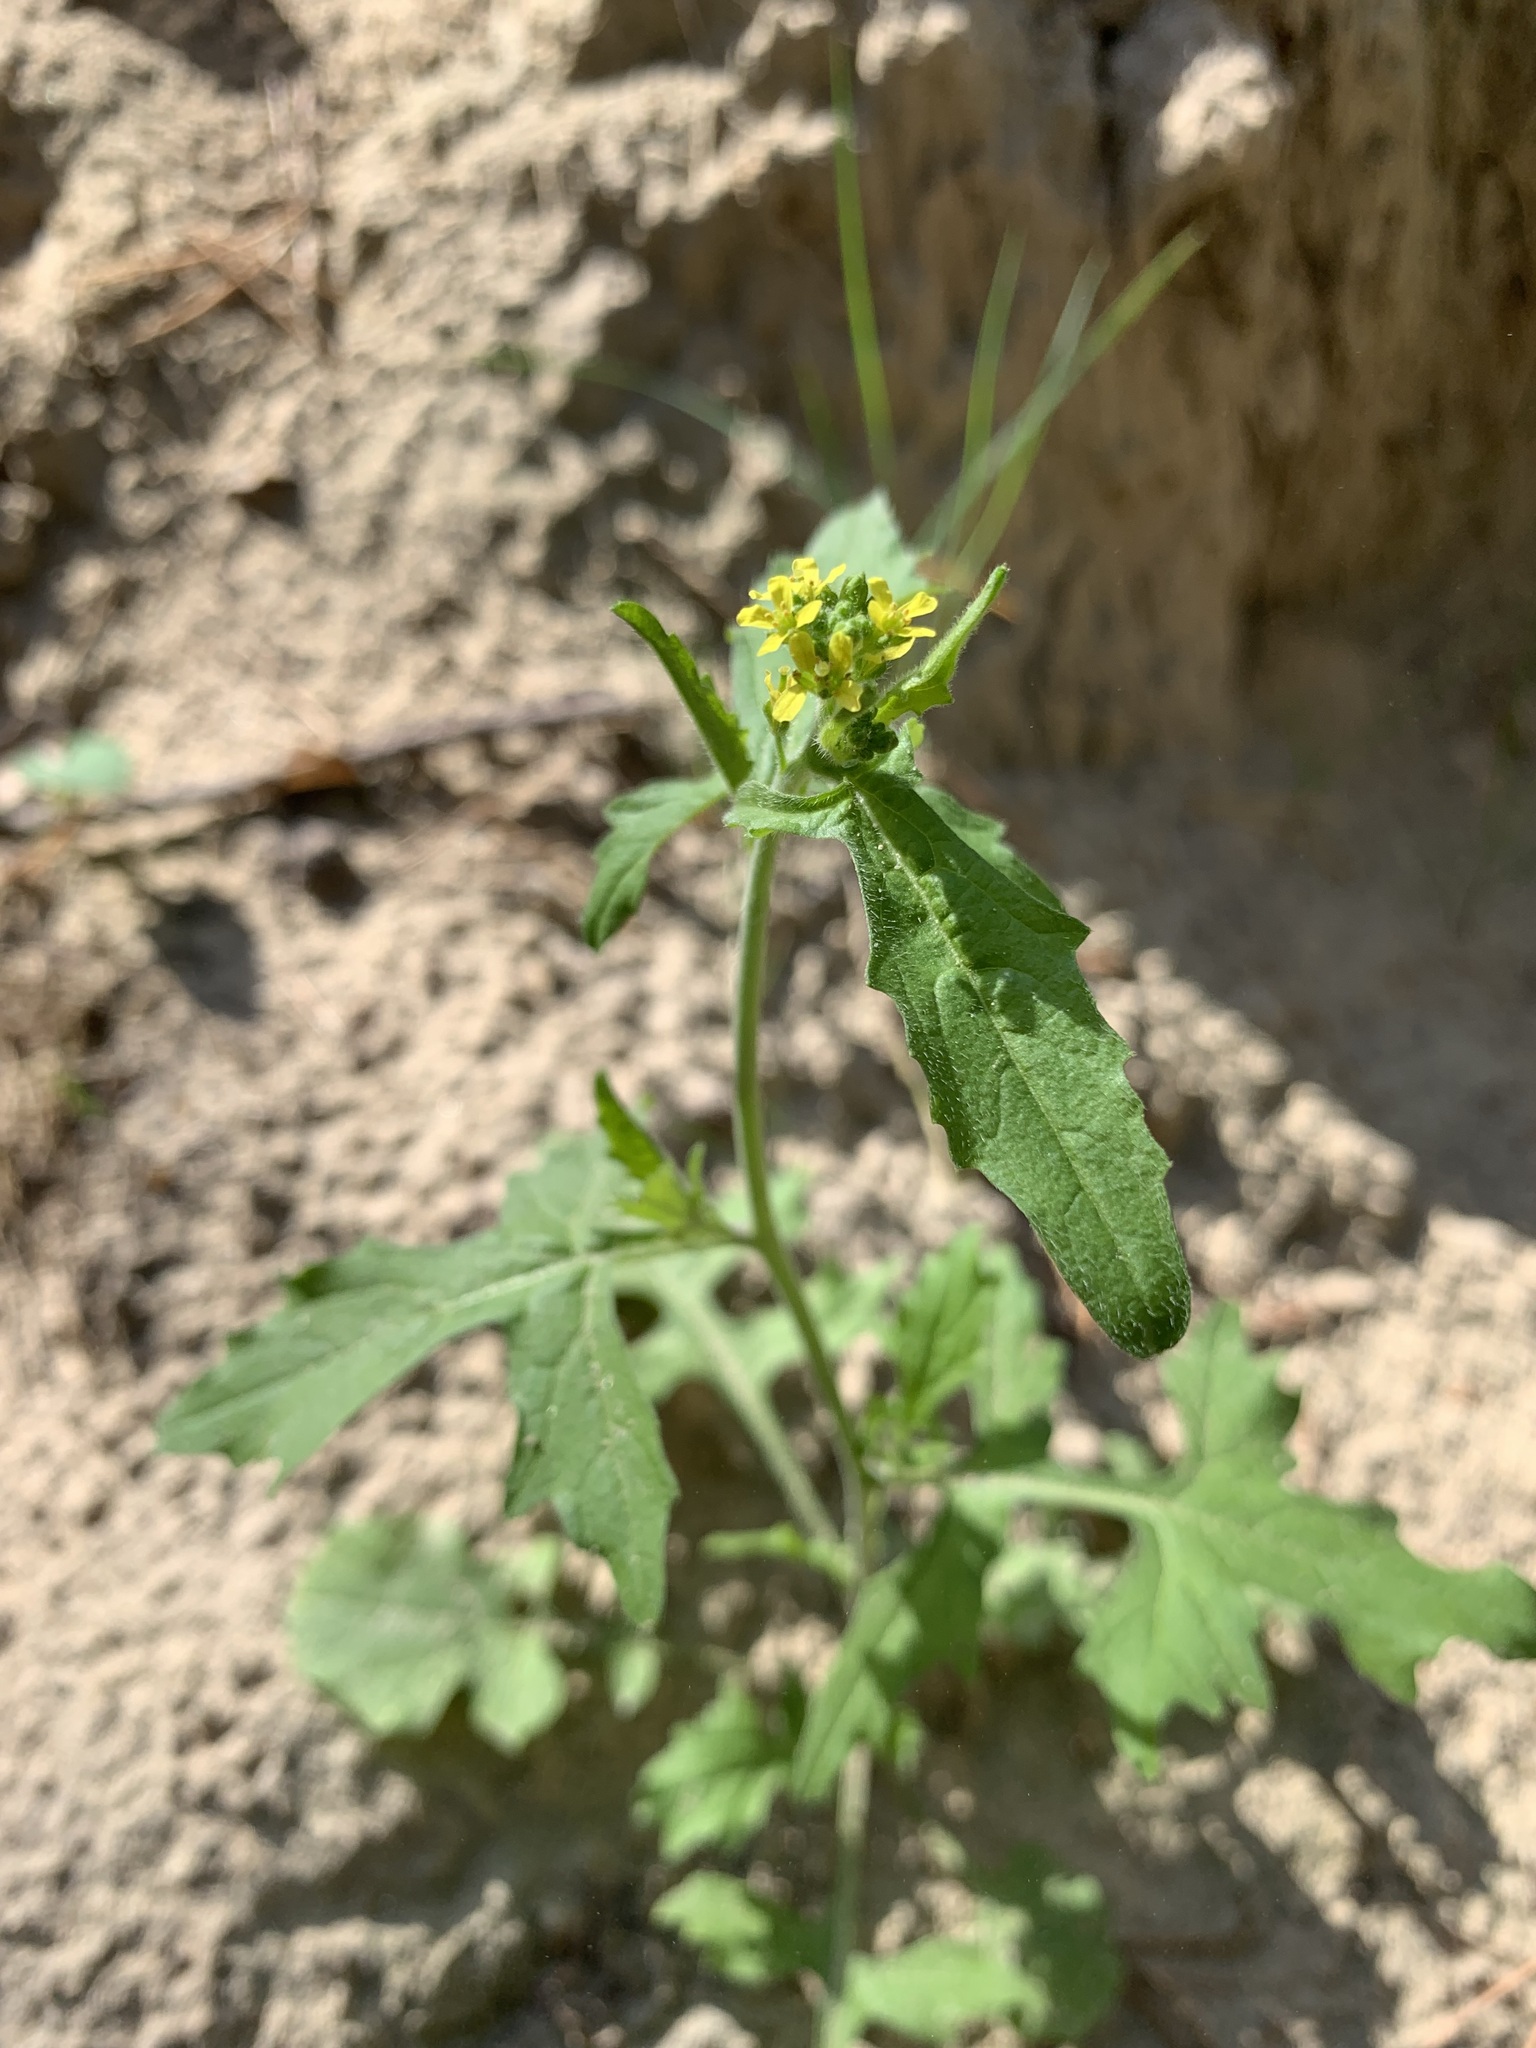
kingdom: Plantae
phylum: Tracheophyta
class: Magnoliopsida
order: Brassicales
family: Brassicaceae
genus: Sisymbrium
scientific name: Sisymbrium officinale
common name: Hedge mustard
